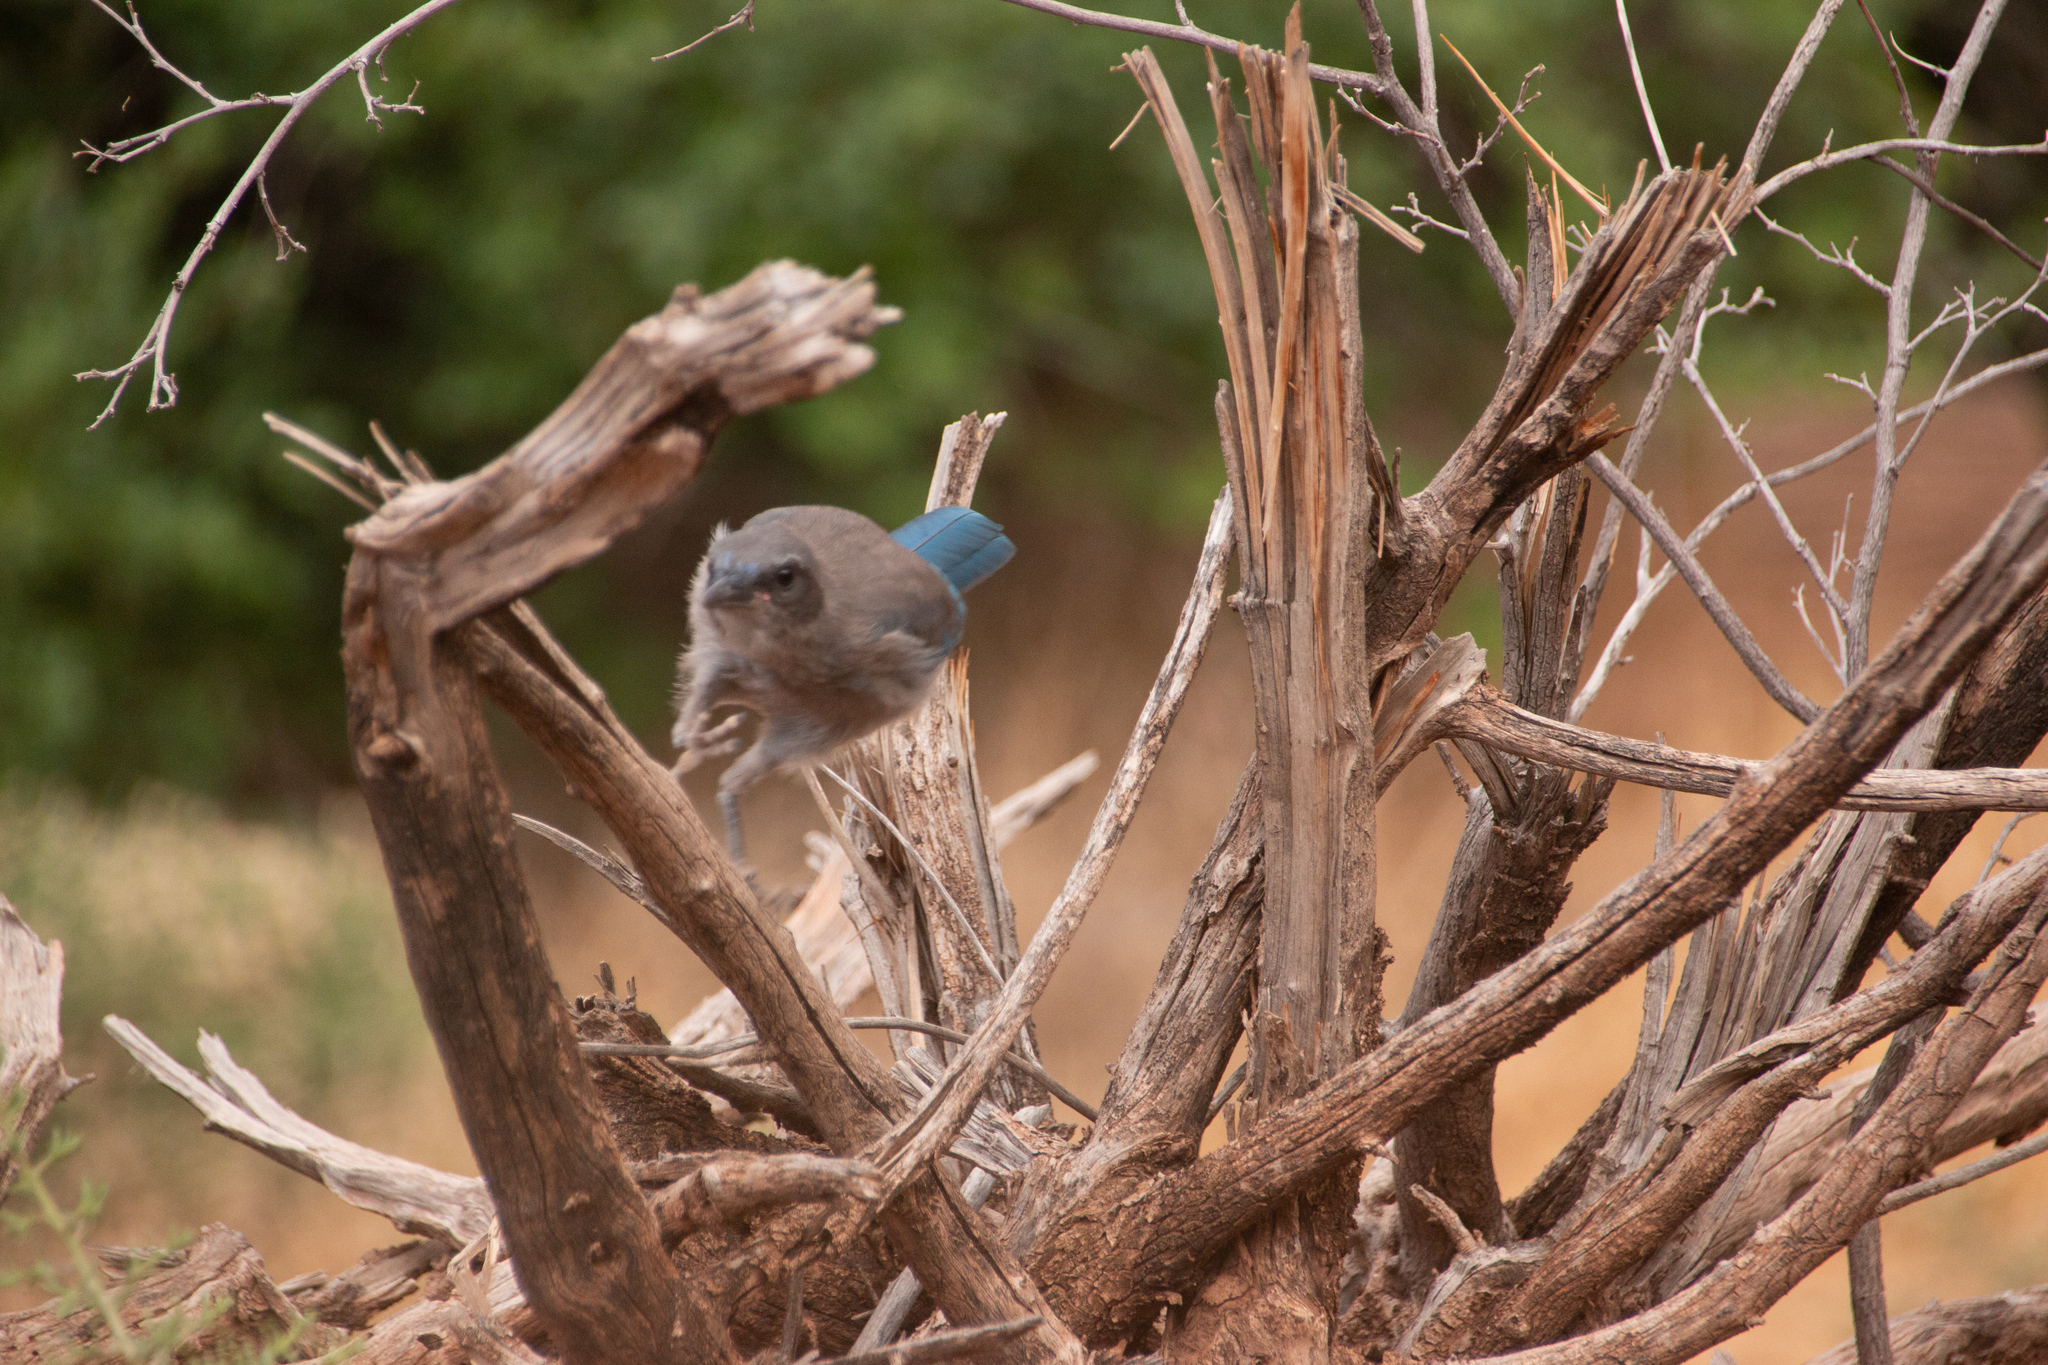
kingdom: Animalia
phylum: Chordata
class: Aves
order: Passeriformes
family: Corvidae
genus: Aphelocoma
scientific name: Aphelocoma woodhouseii
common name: Woodhouse's scrub-jay
